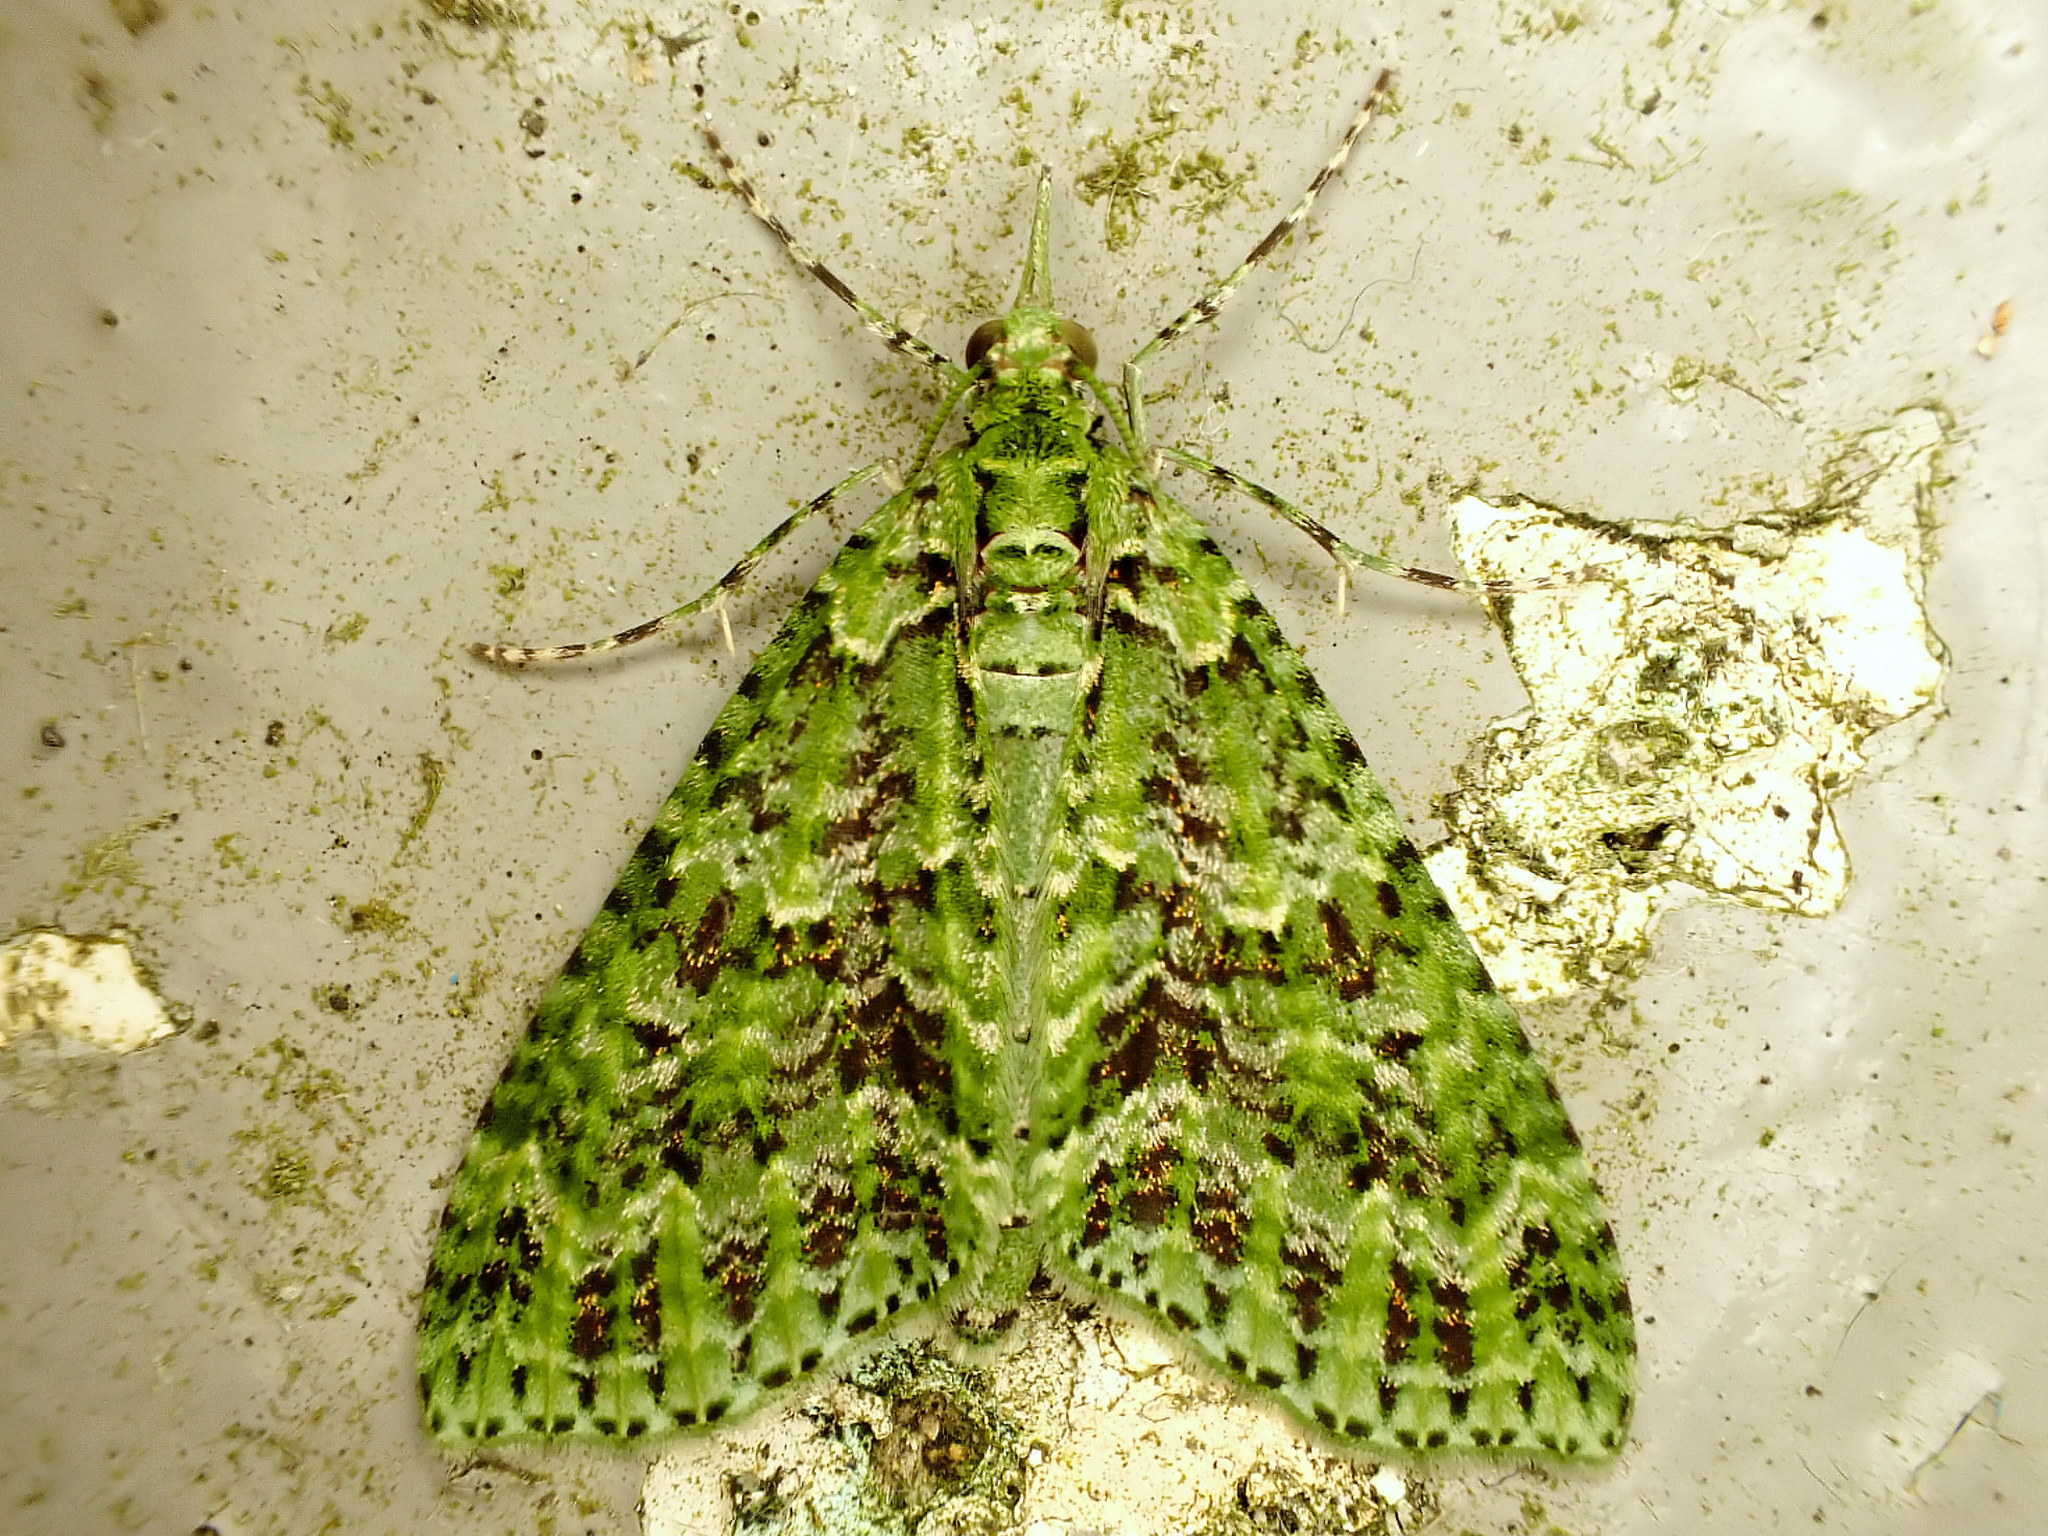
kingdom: Animalia
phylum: Arthropoda
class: Insecta
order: Lepidoptera
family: Geometridae
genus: Tatosoma
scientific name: Tatosoma tipulata
